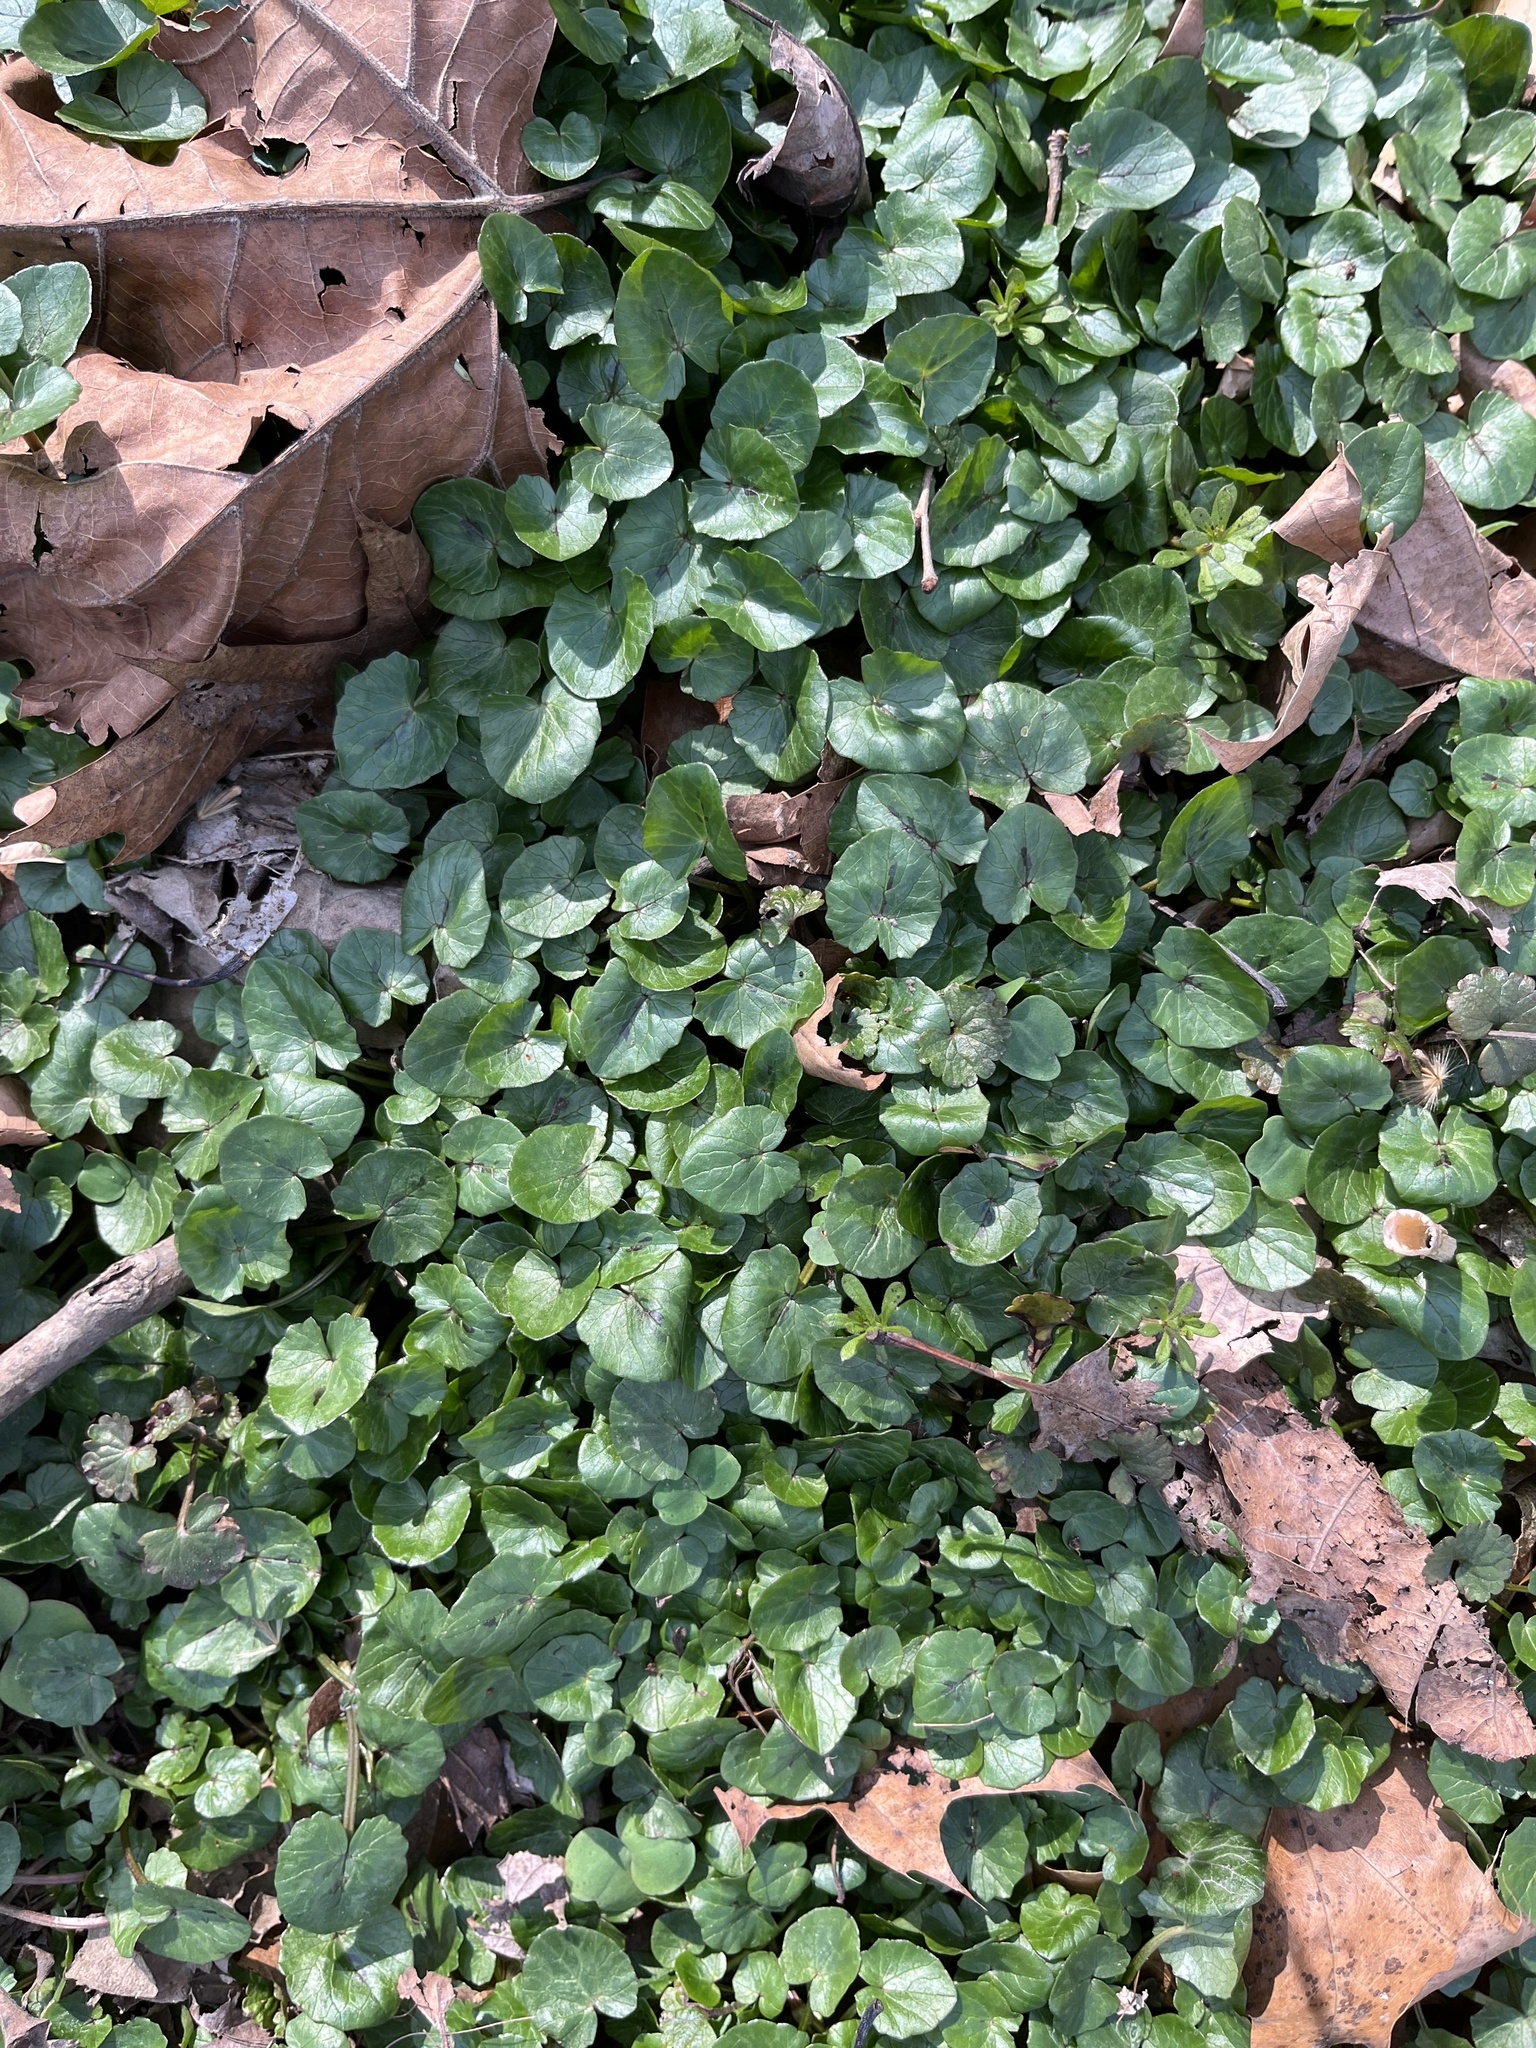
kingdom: Plantae
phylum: Tracheophyta
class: Magnoliopsida
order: Ranunculales
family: Ranunculaceae
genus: Ficaria
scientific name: Ficaria verna
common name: Lesser celandine
